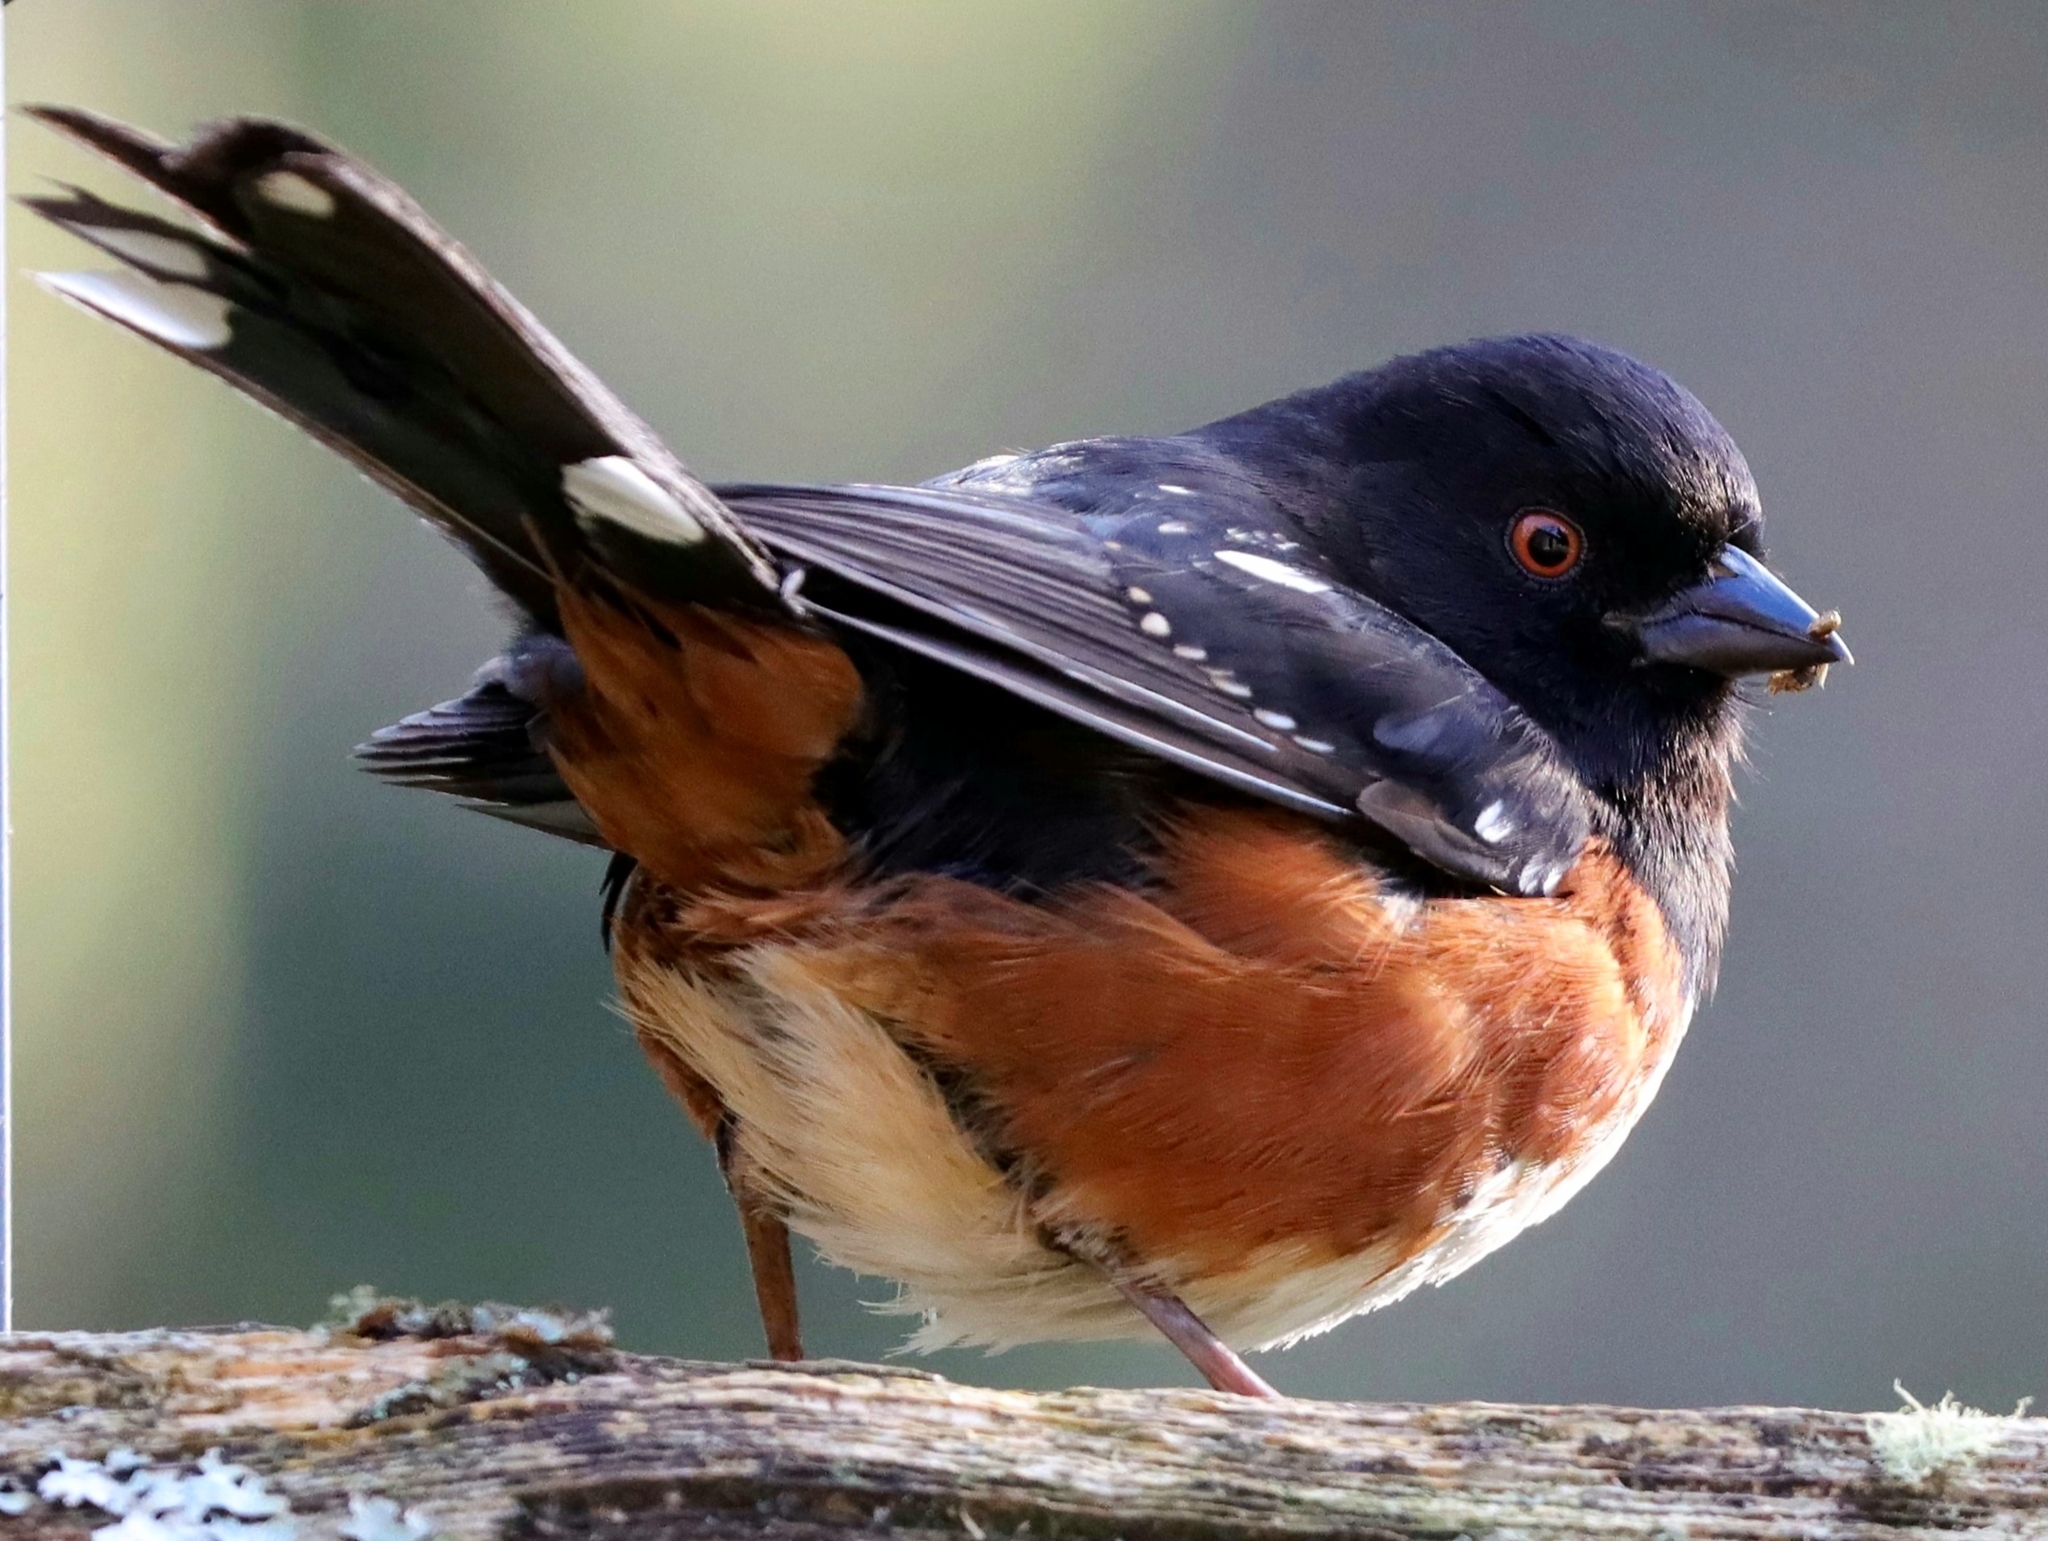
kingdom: Animalia
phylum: Chordata
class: Aves
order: Passeriformes
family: Passerellidae
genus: Pipilo
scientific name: Pipilo maculatus
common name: Spotted towhee
